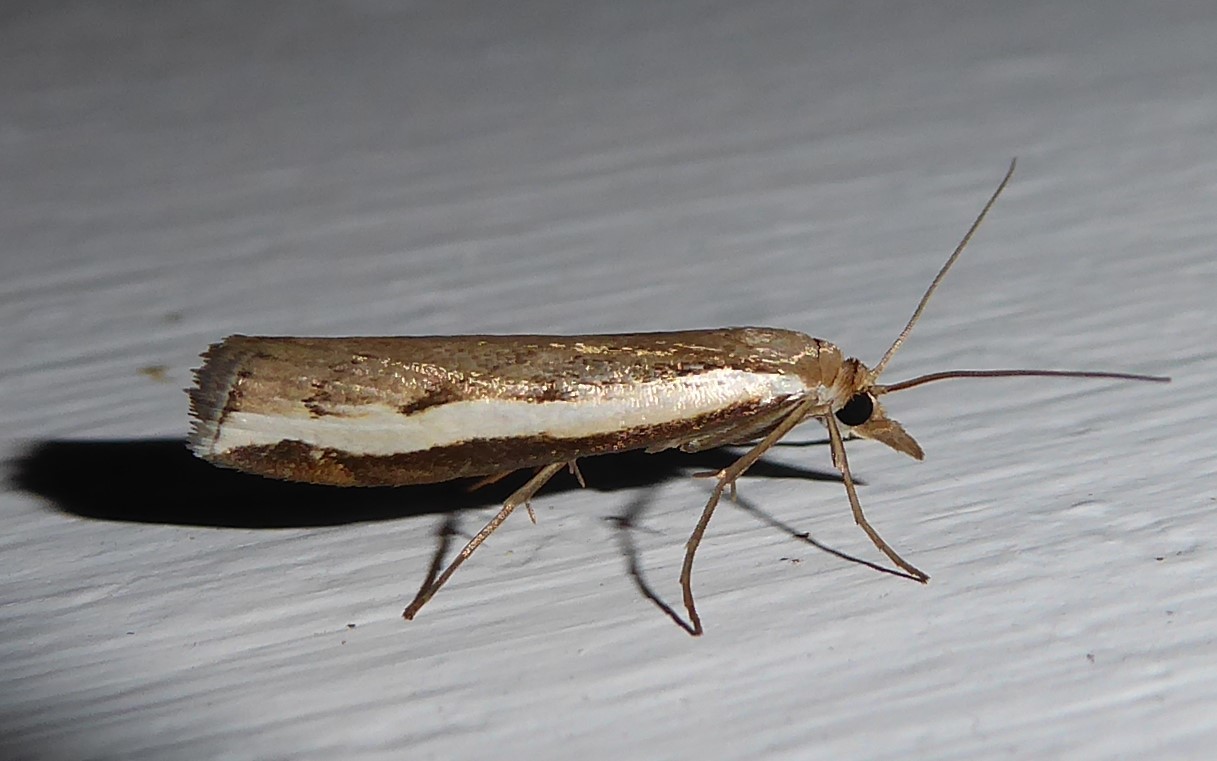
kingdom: Animalia
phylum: Arthropoda
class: Insecta
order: Lepidoptera
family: Crambidae
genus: Orocrambus
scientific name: Orocrambus flexuosellus
